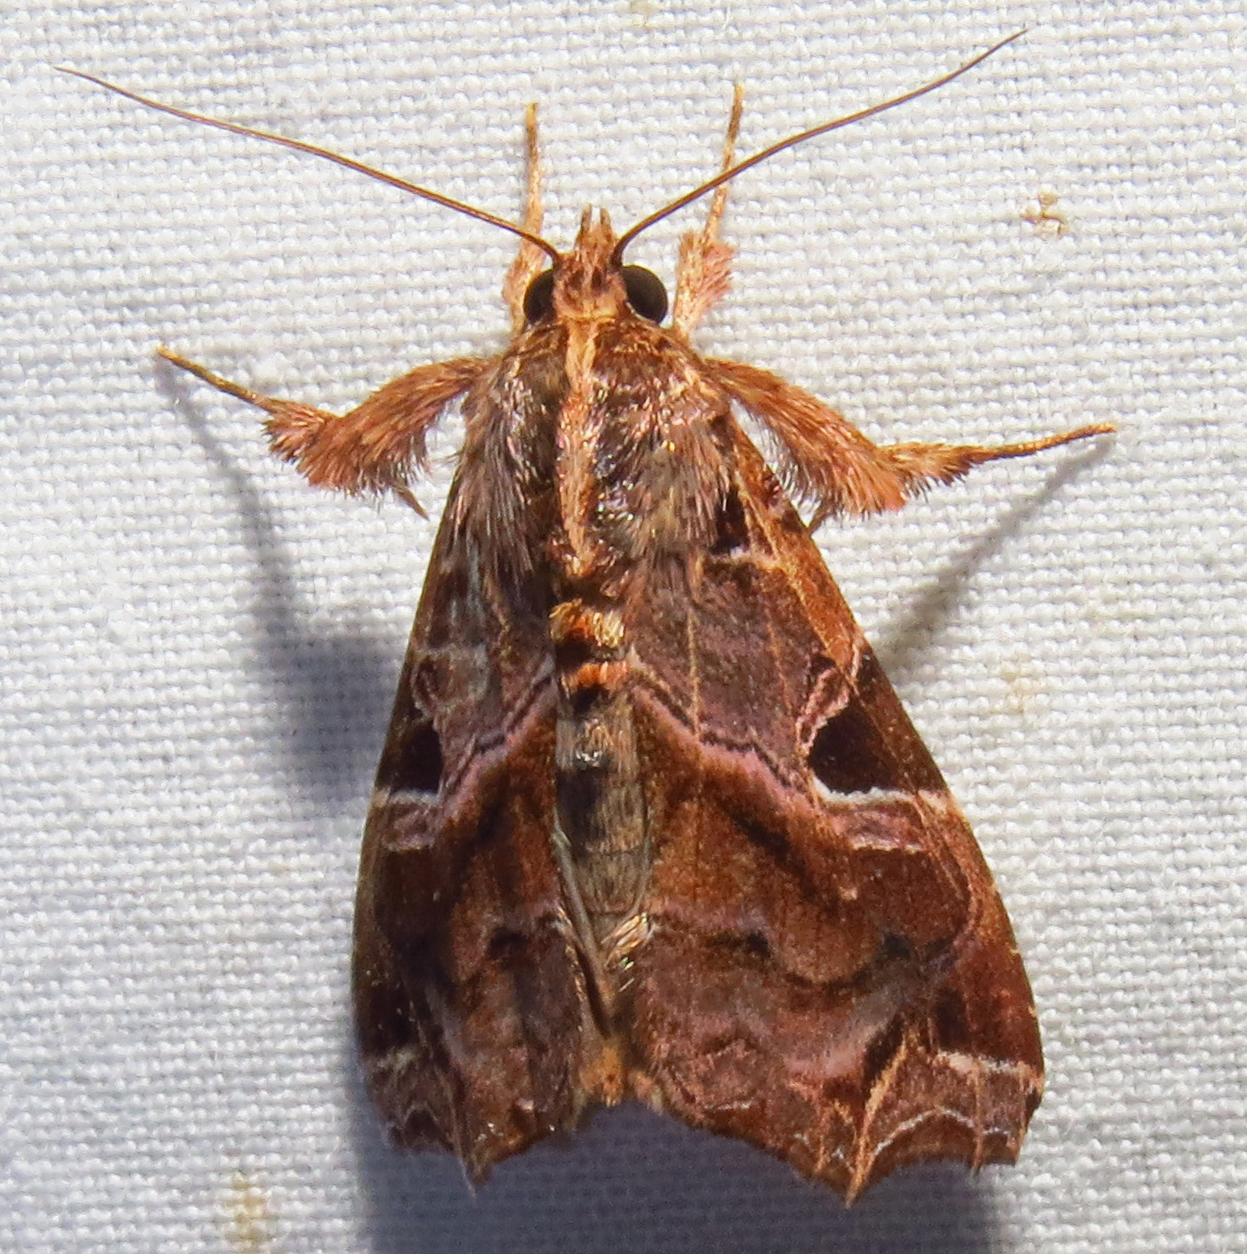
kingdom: Animalia
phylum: Arthropoda
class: Insecta
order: Lepidoptera
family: Noctuidae
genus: Callopistria
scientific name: Callopistria floridensis
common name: Florida fern moth
